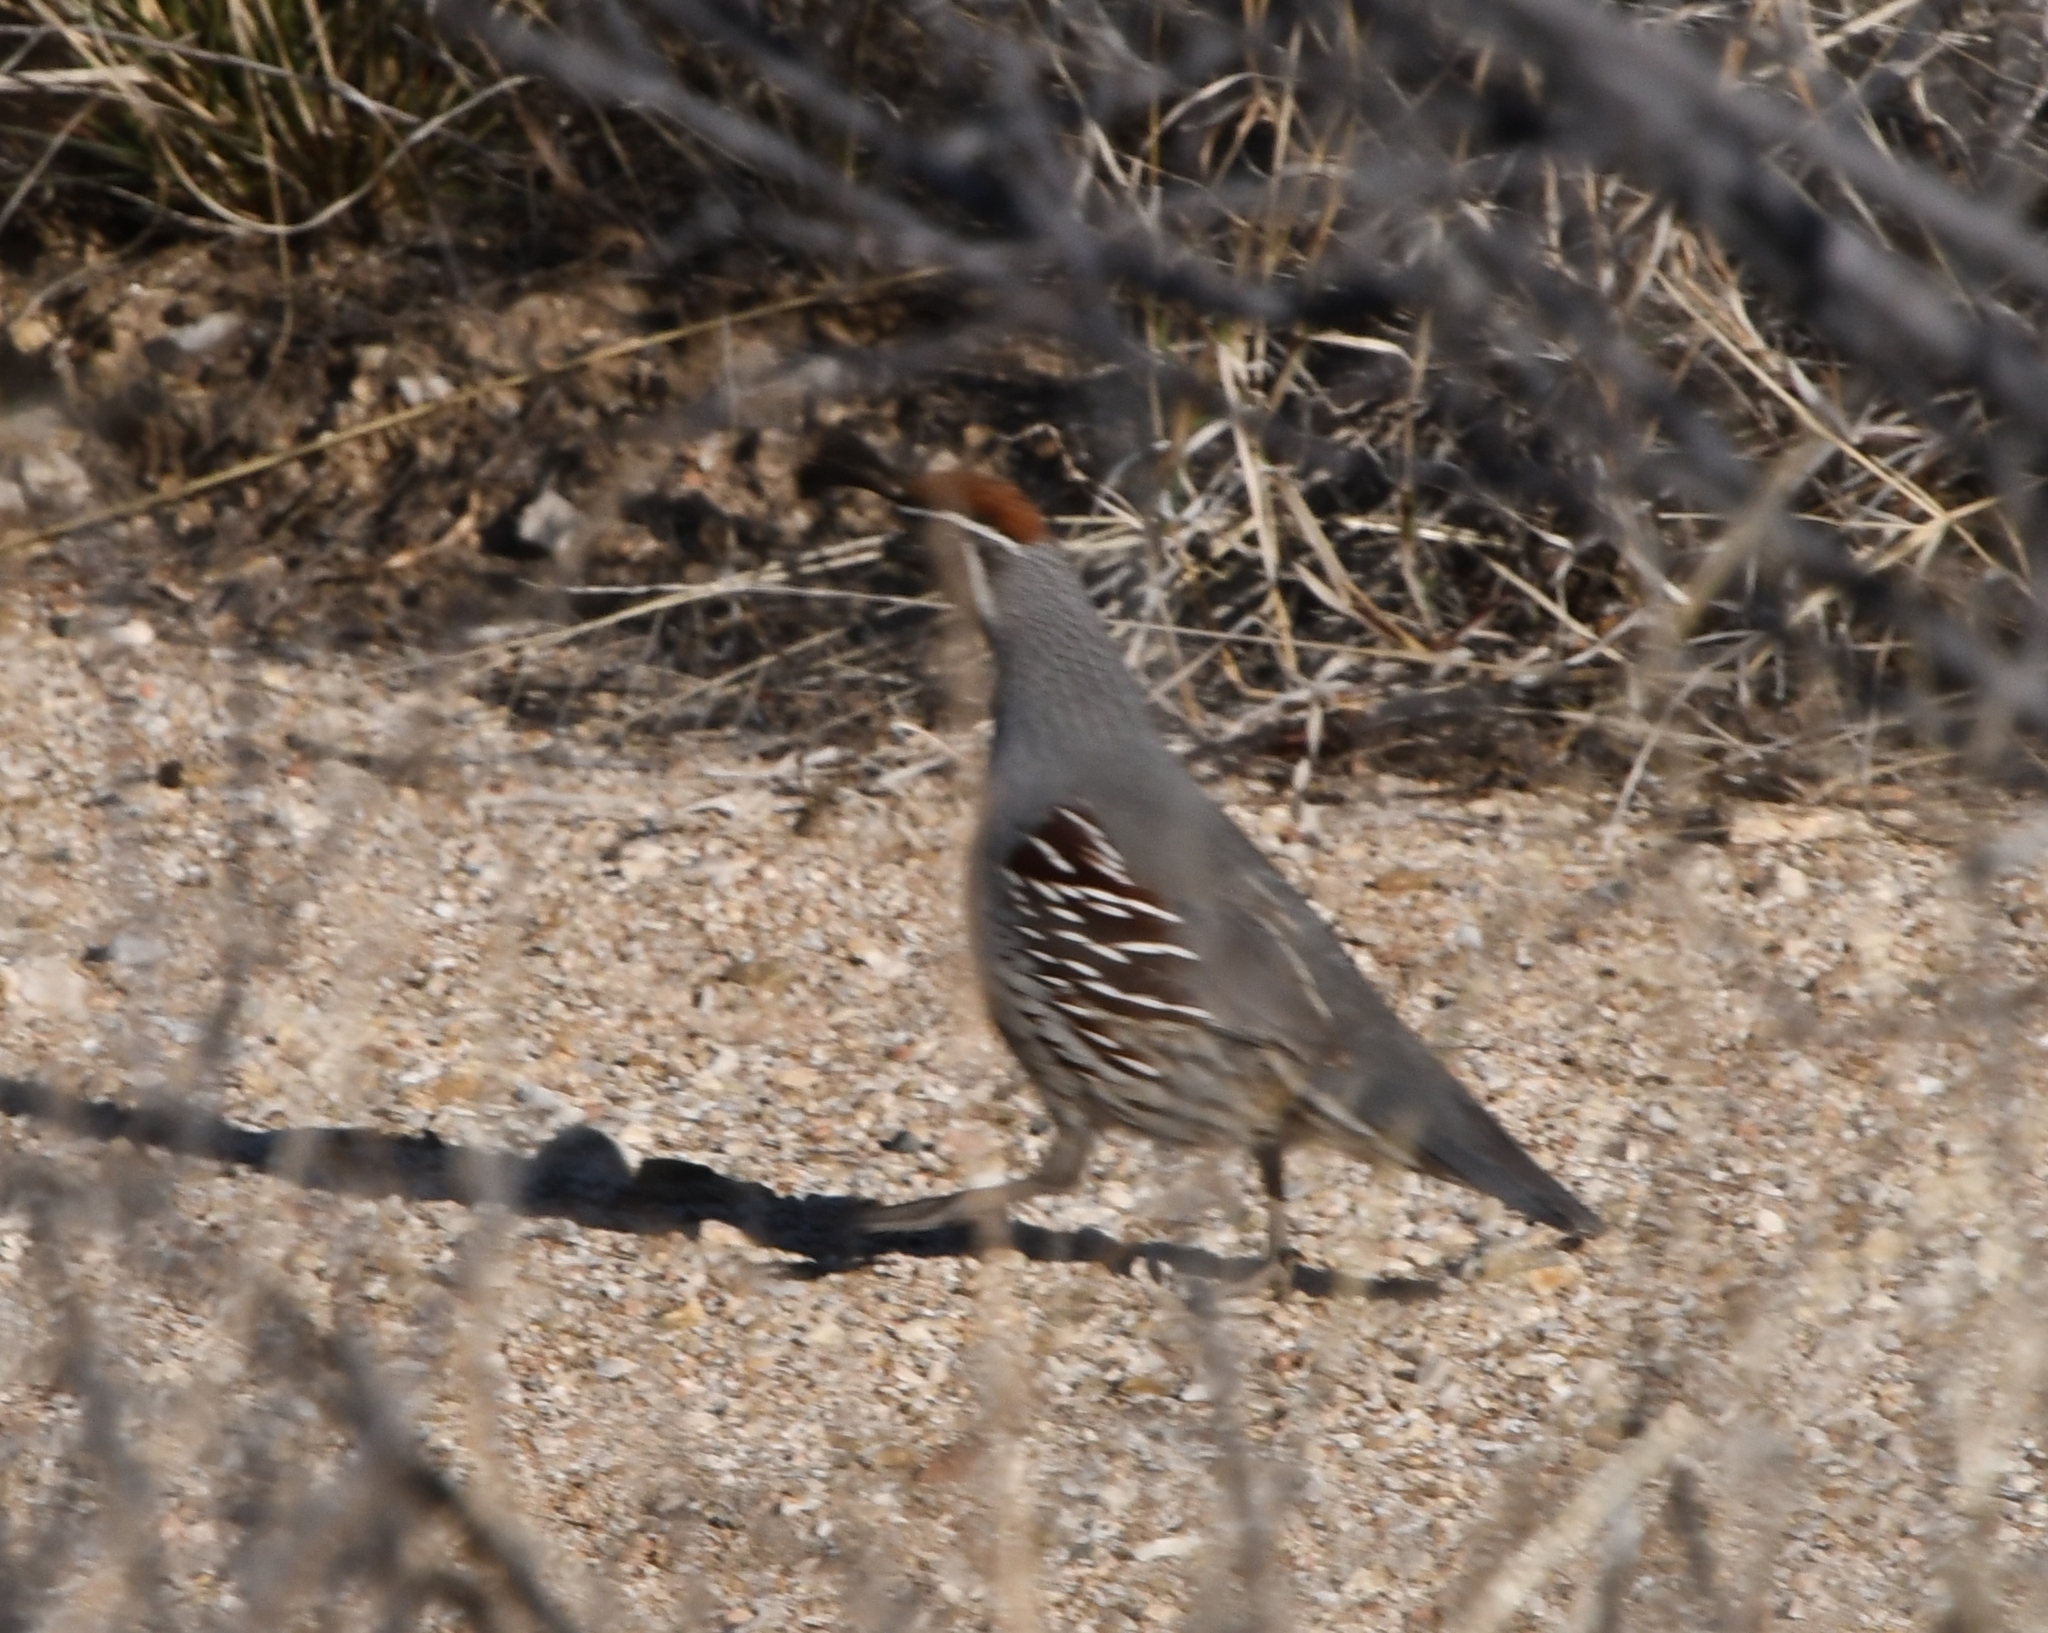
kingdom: Animalia
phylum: Chordata
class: Aves
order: Galliformes
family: Odontophoridae
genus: Callipepla
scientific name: Callipepla gambelii
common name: Gambel's quail
